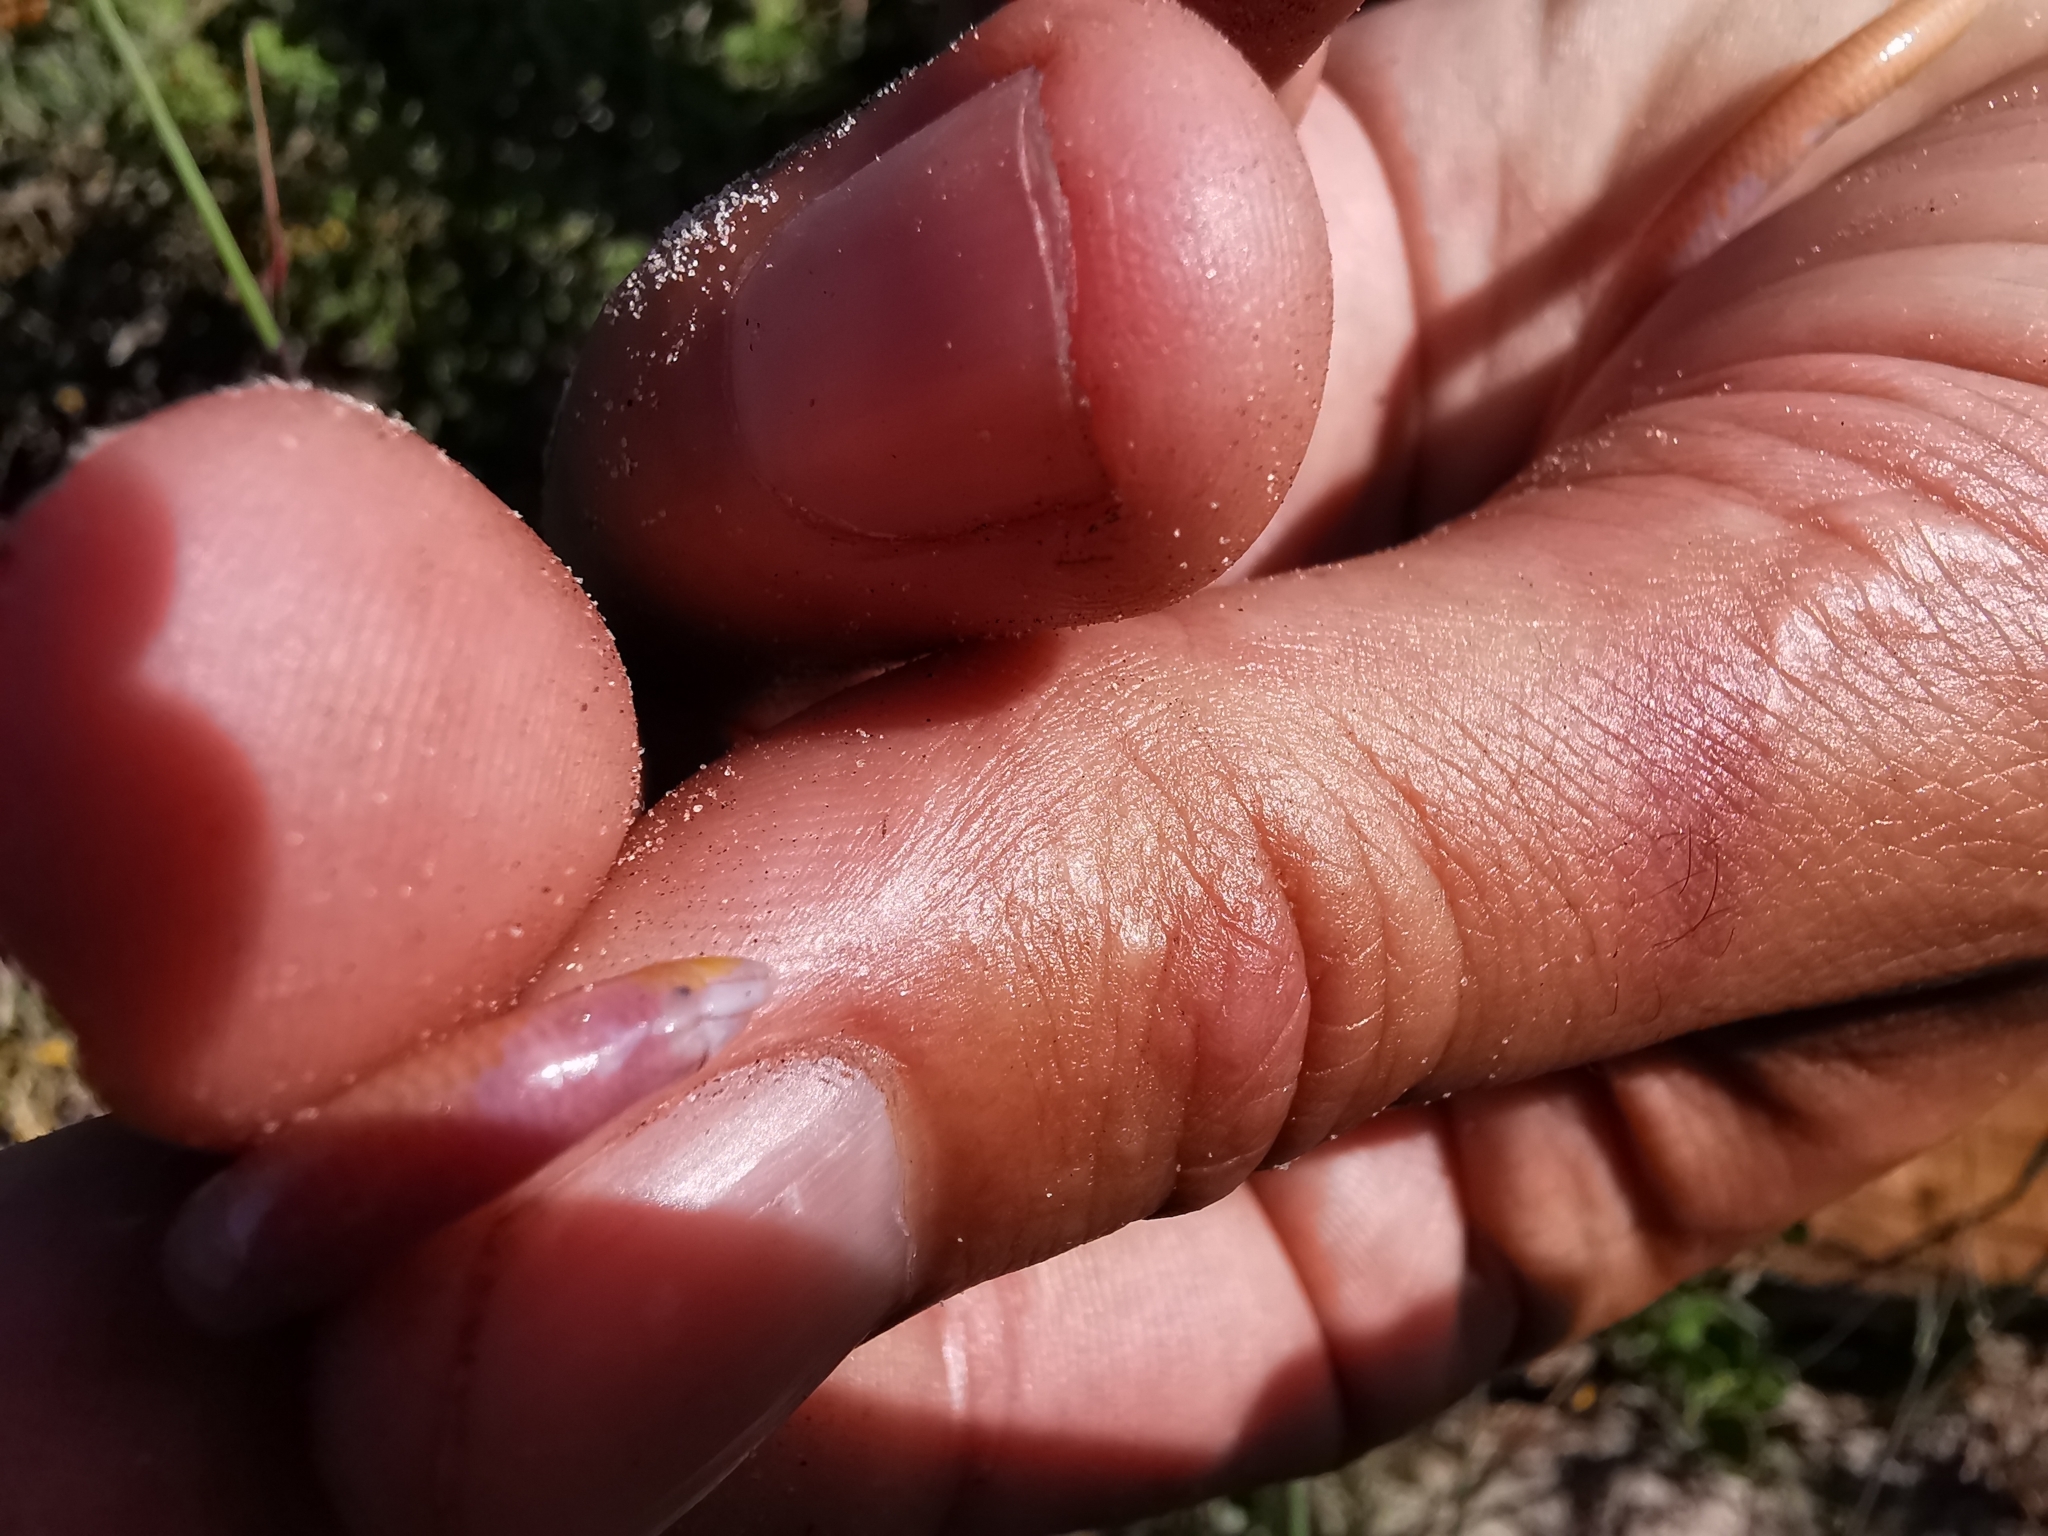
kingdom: Animalia
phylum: Chordata
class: Squamata
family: Scincidae
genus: Typhlosaurus
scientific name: Typhlosaurus caecus
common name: Cuvier's legless skink
